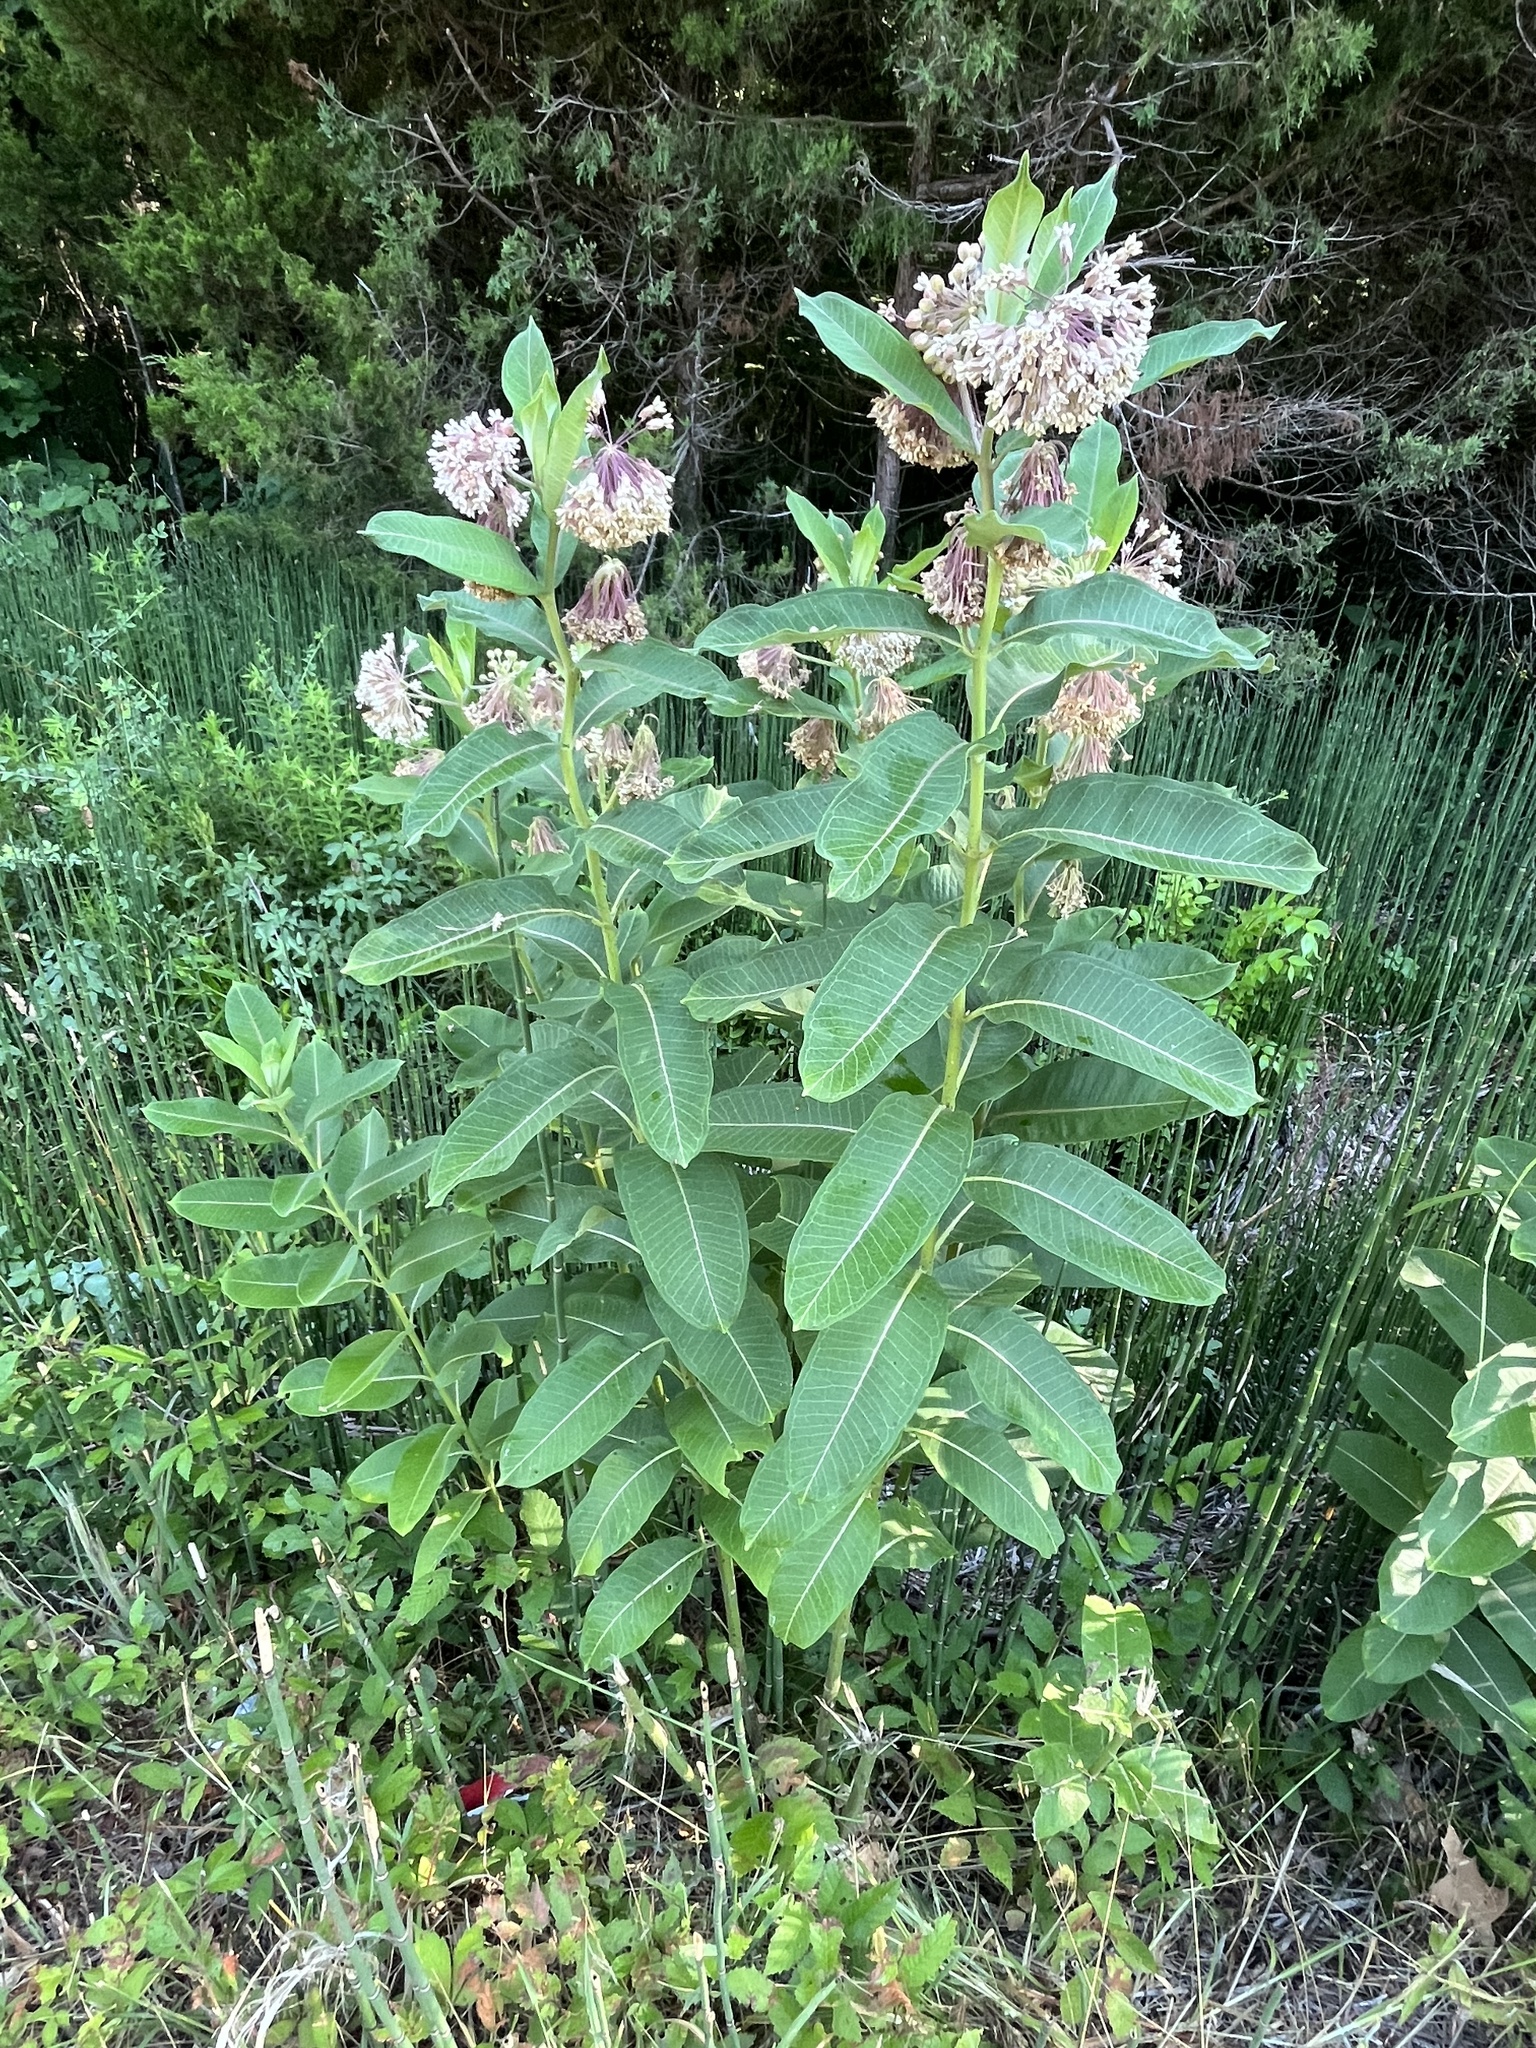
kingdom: Plantae
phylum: Tracheophyta
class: Magnoliopsida
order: Gentianales
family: Apocynaceae
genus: Asclepias
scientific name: Asclepias syriaca
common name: Common milkweed
